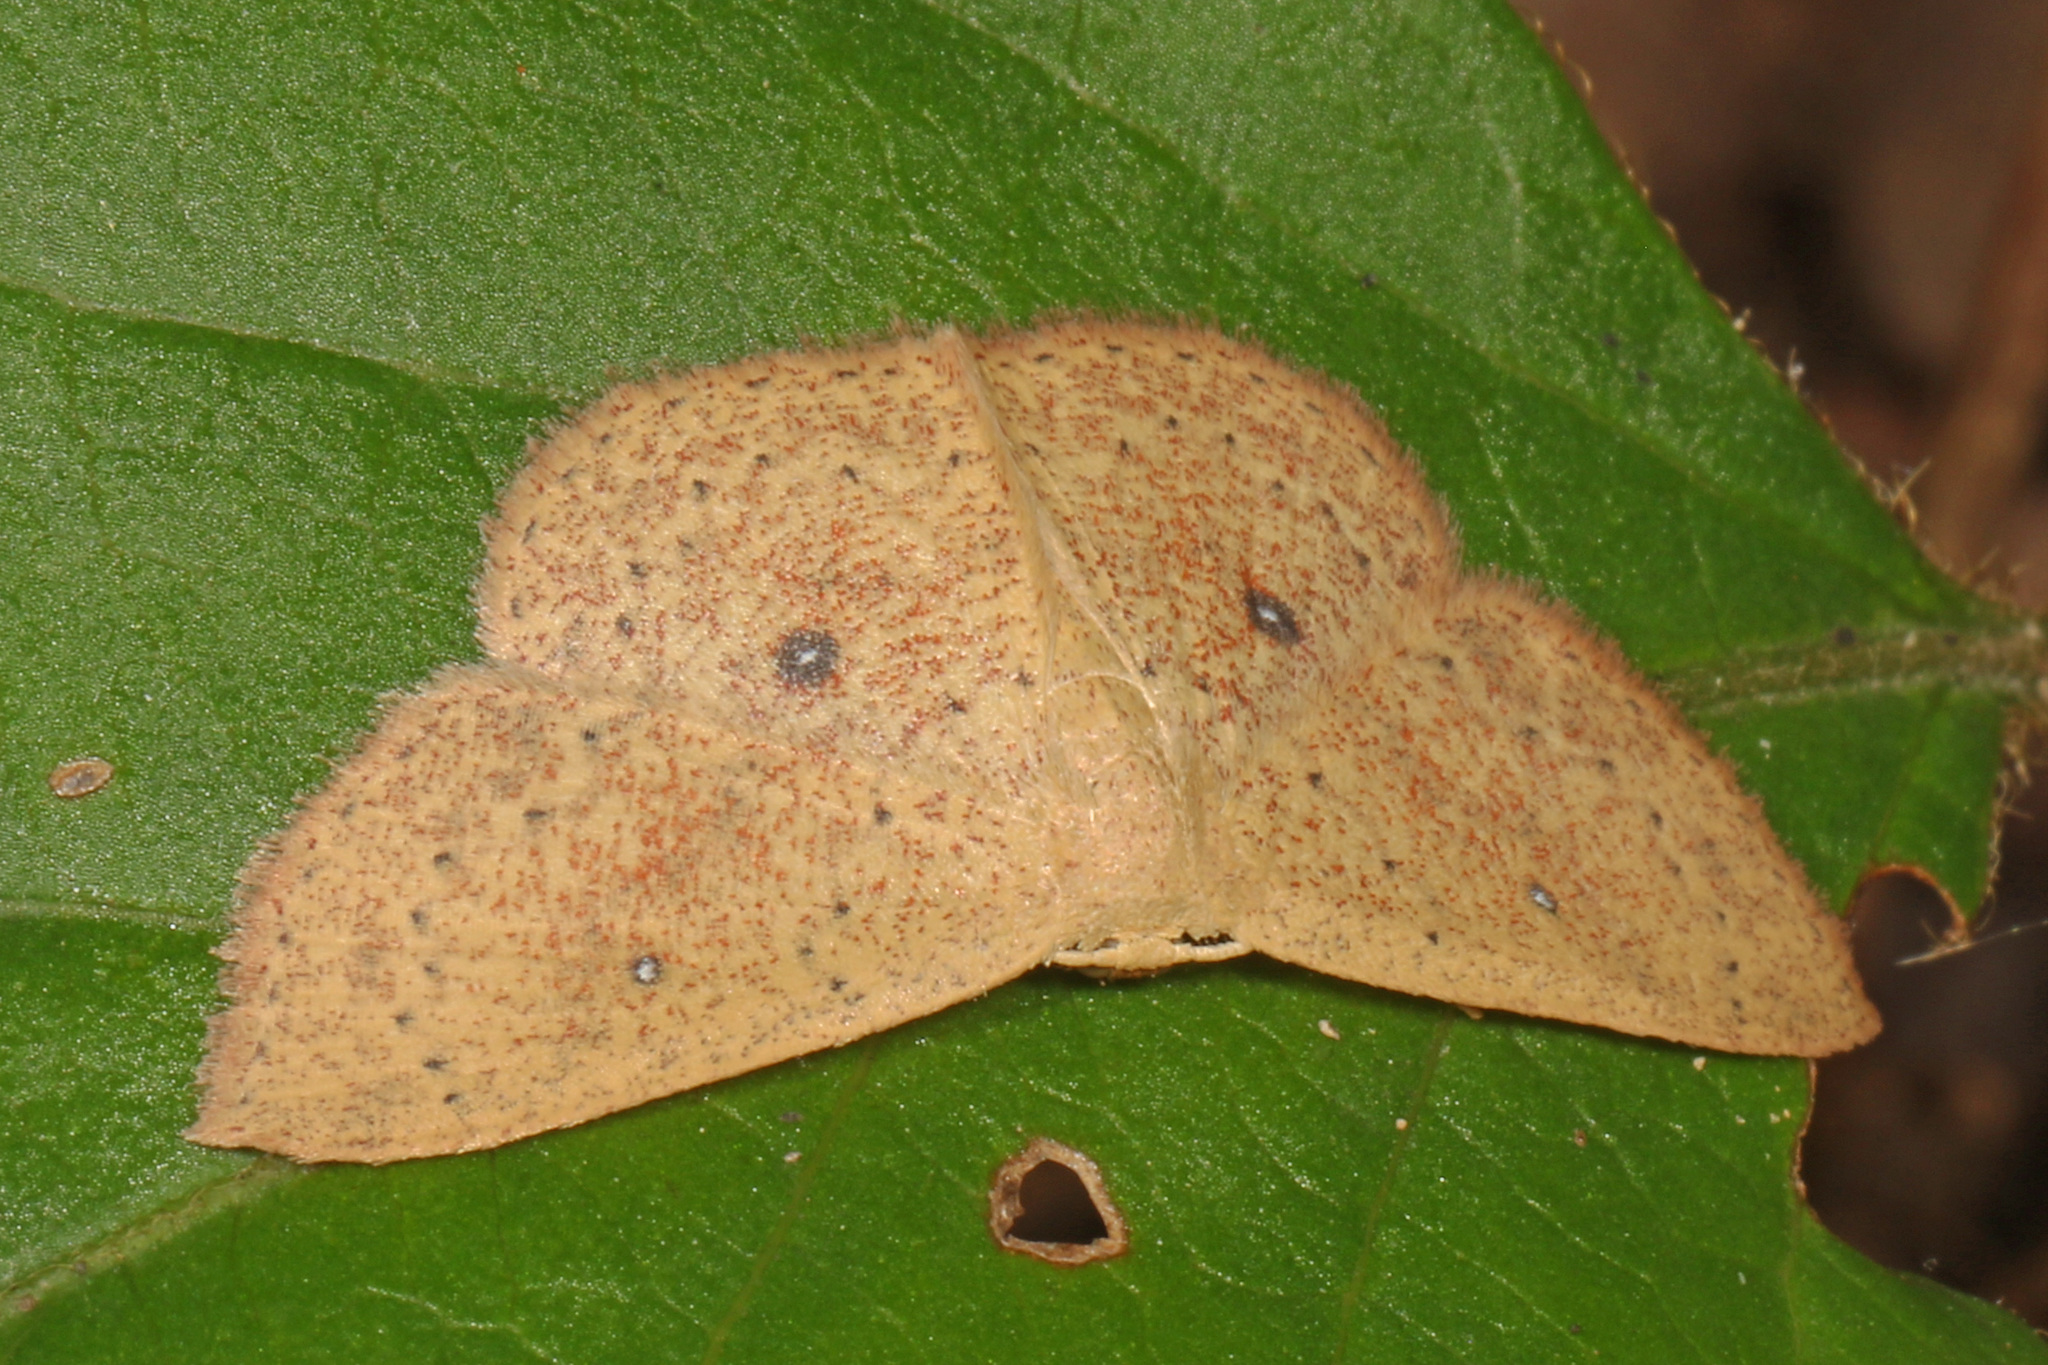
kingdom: Animalia
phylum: Arthropoda
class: Insecta
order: Lepidoptera
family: Geometridae
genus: Cyclophora
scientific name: Cyclophora packardi
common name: Packard's wave
